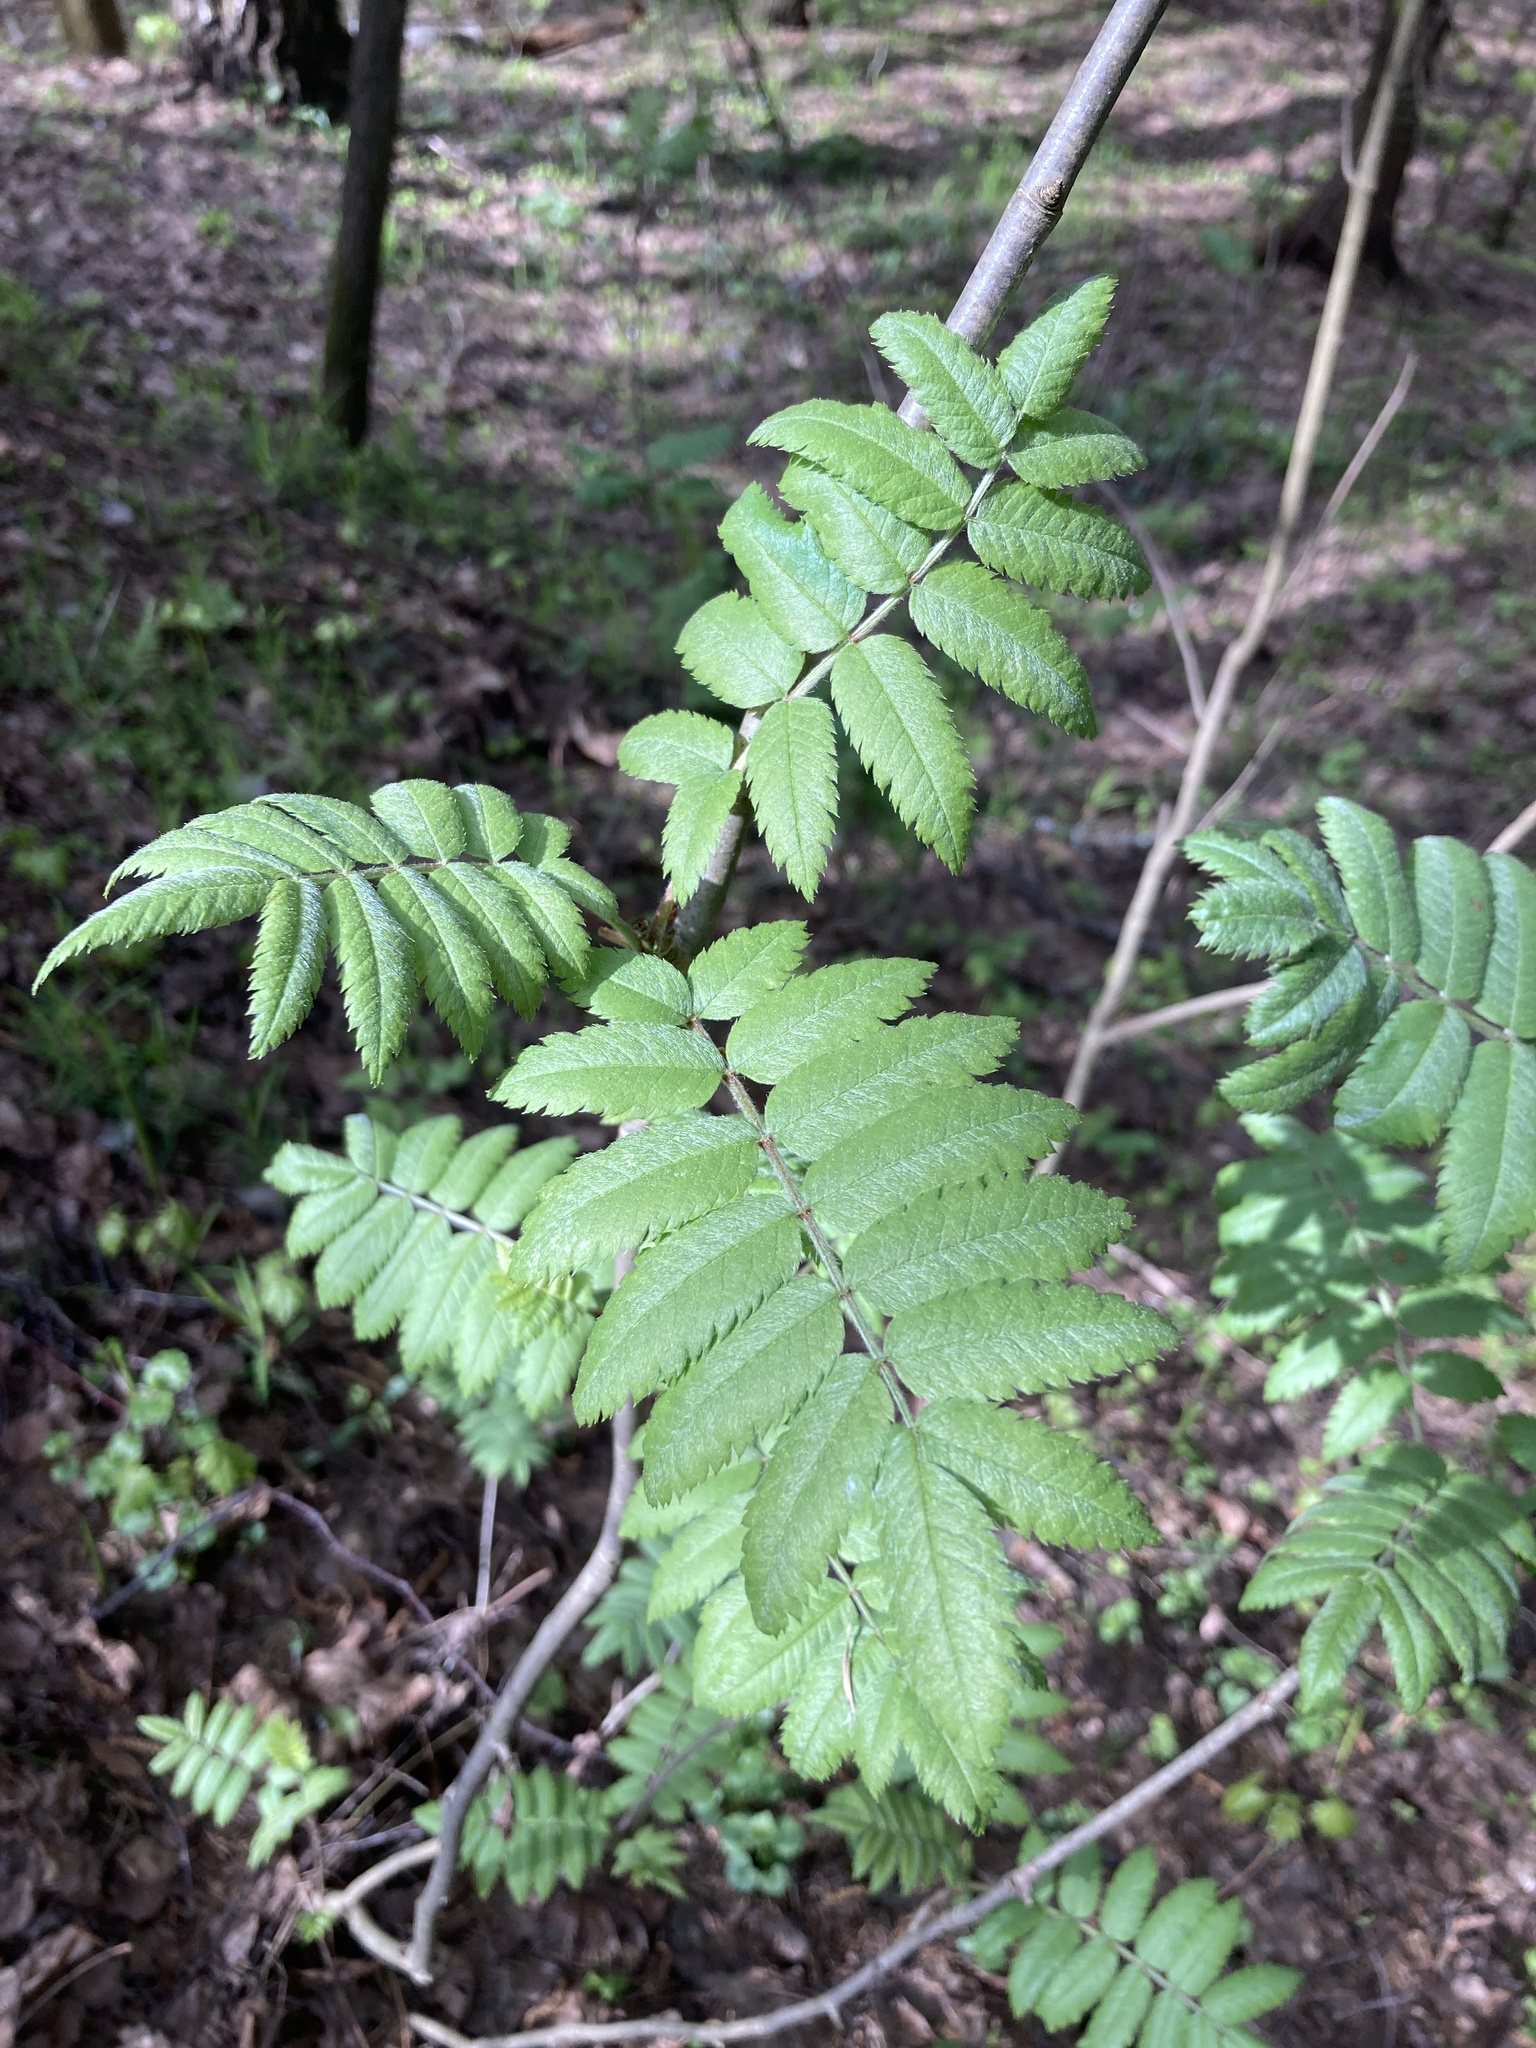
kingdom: Plantae
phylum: Tracheophyta
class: Magnoliopsida
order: Rosales
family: Rosaceae
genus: Sorbus
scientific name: Sorbus aucuparia
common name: Rowan
